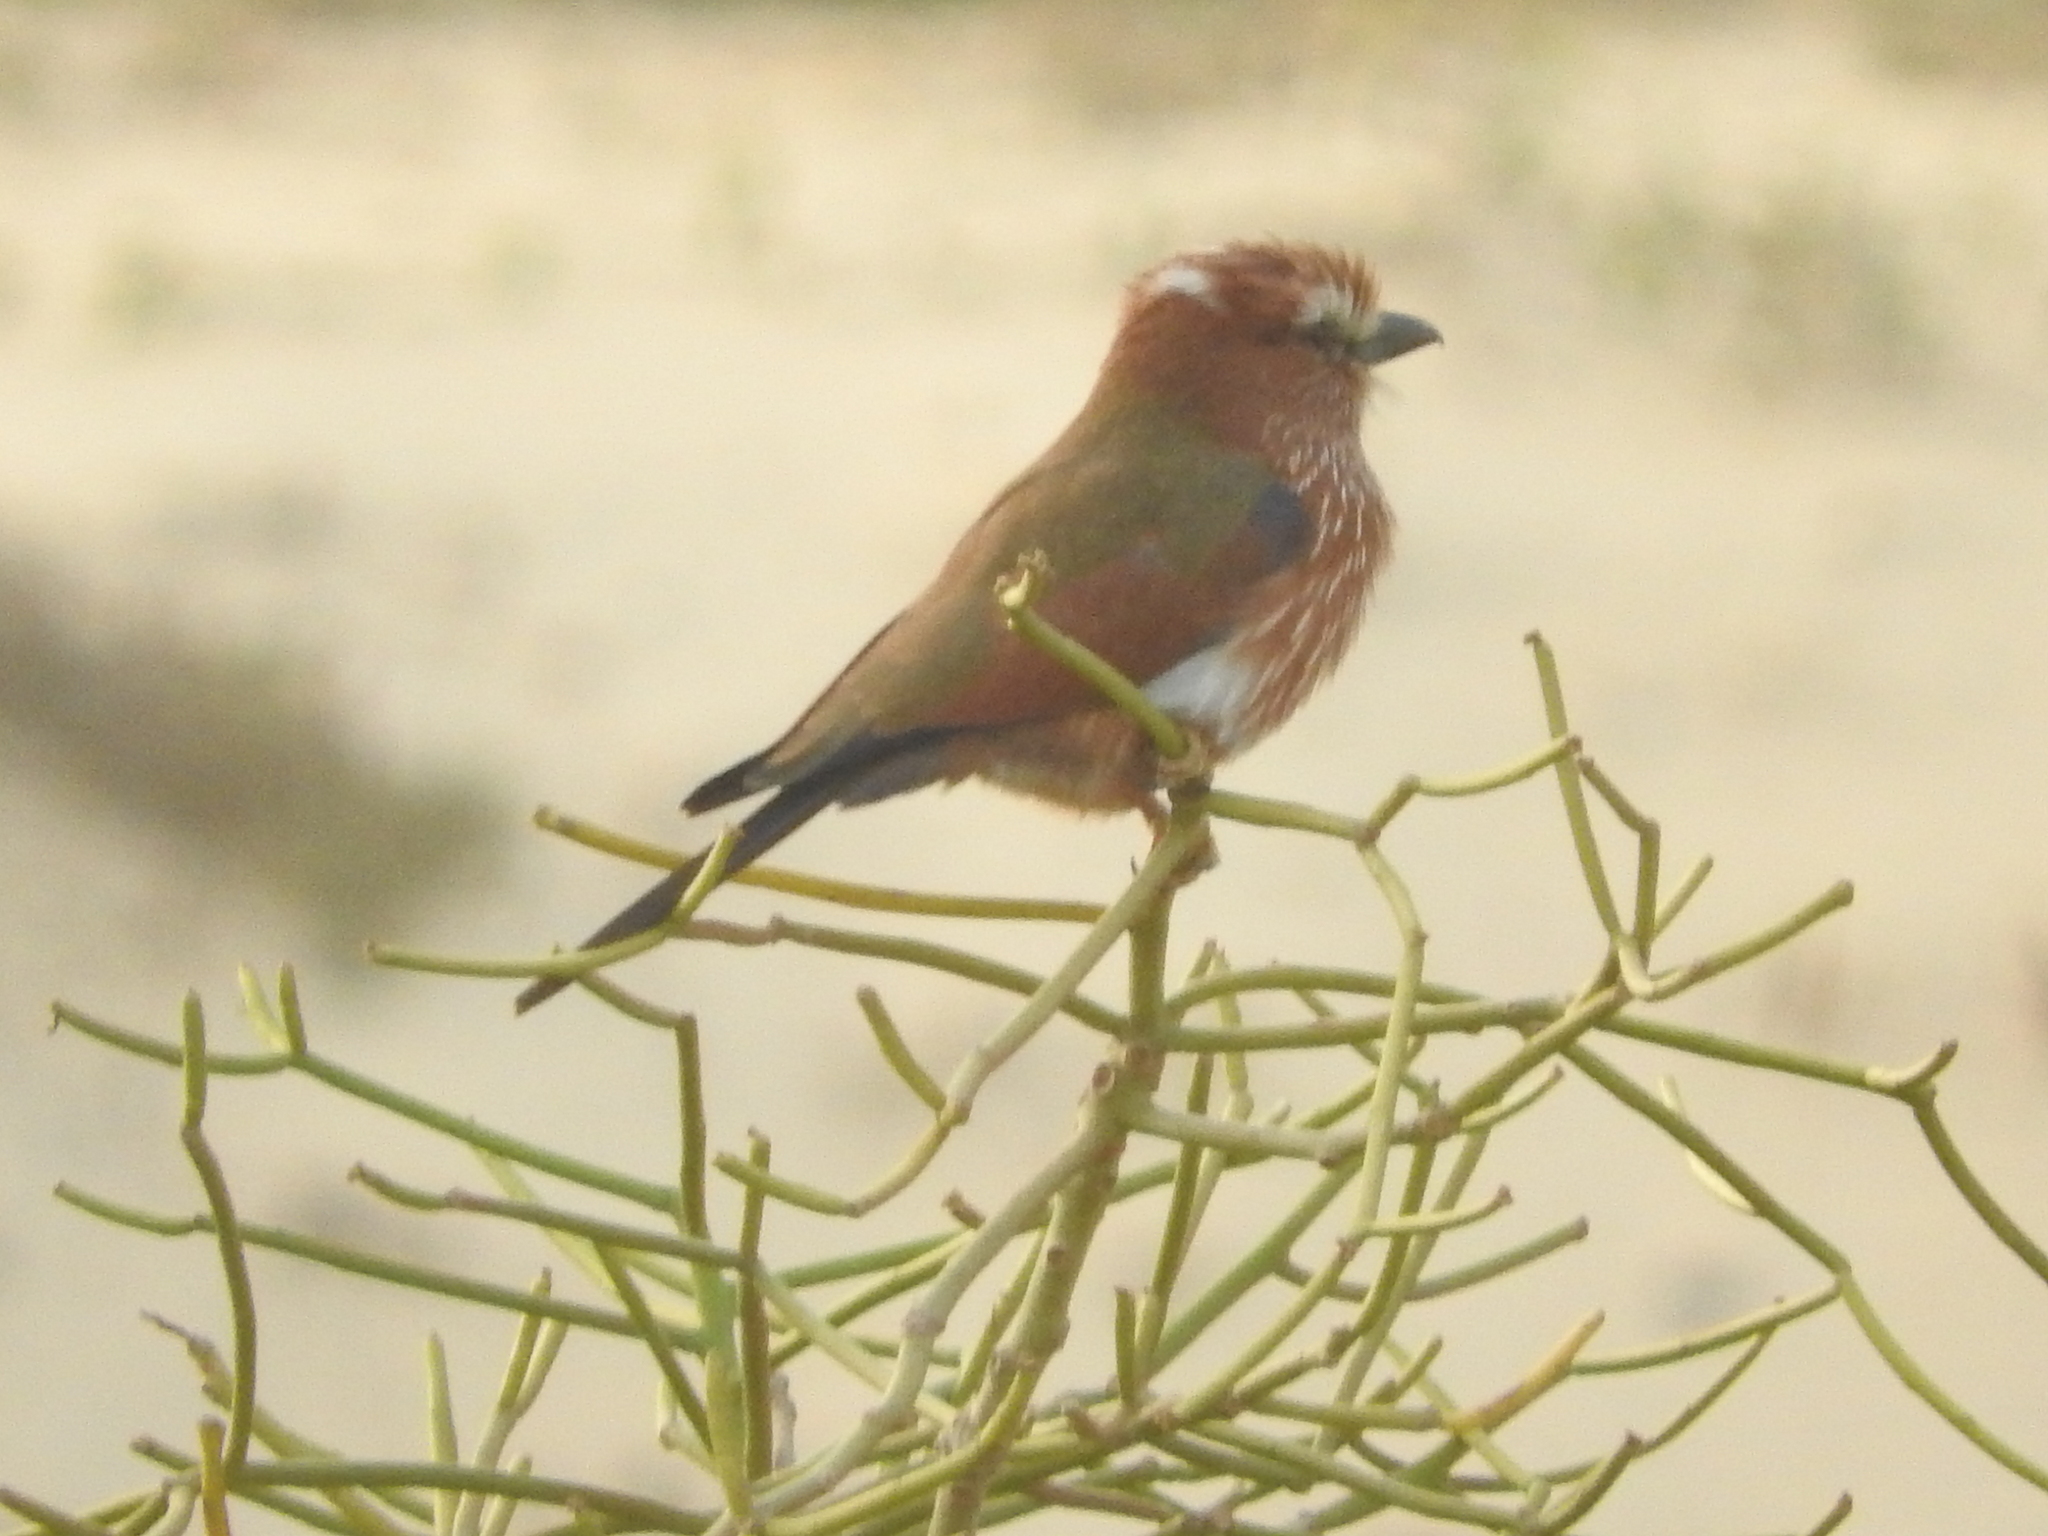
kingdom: Animalia
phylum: Chordata
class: Aves
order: Coraciiformes
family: Coraciidae
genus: Coracias
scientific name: Coracias naevius
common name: Purple roller
